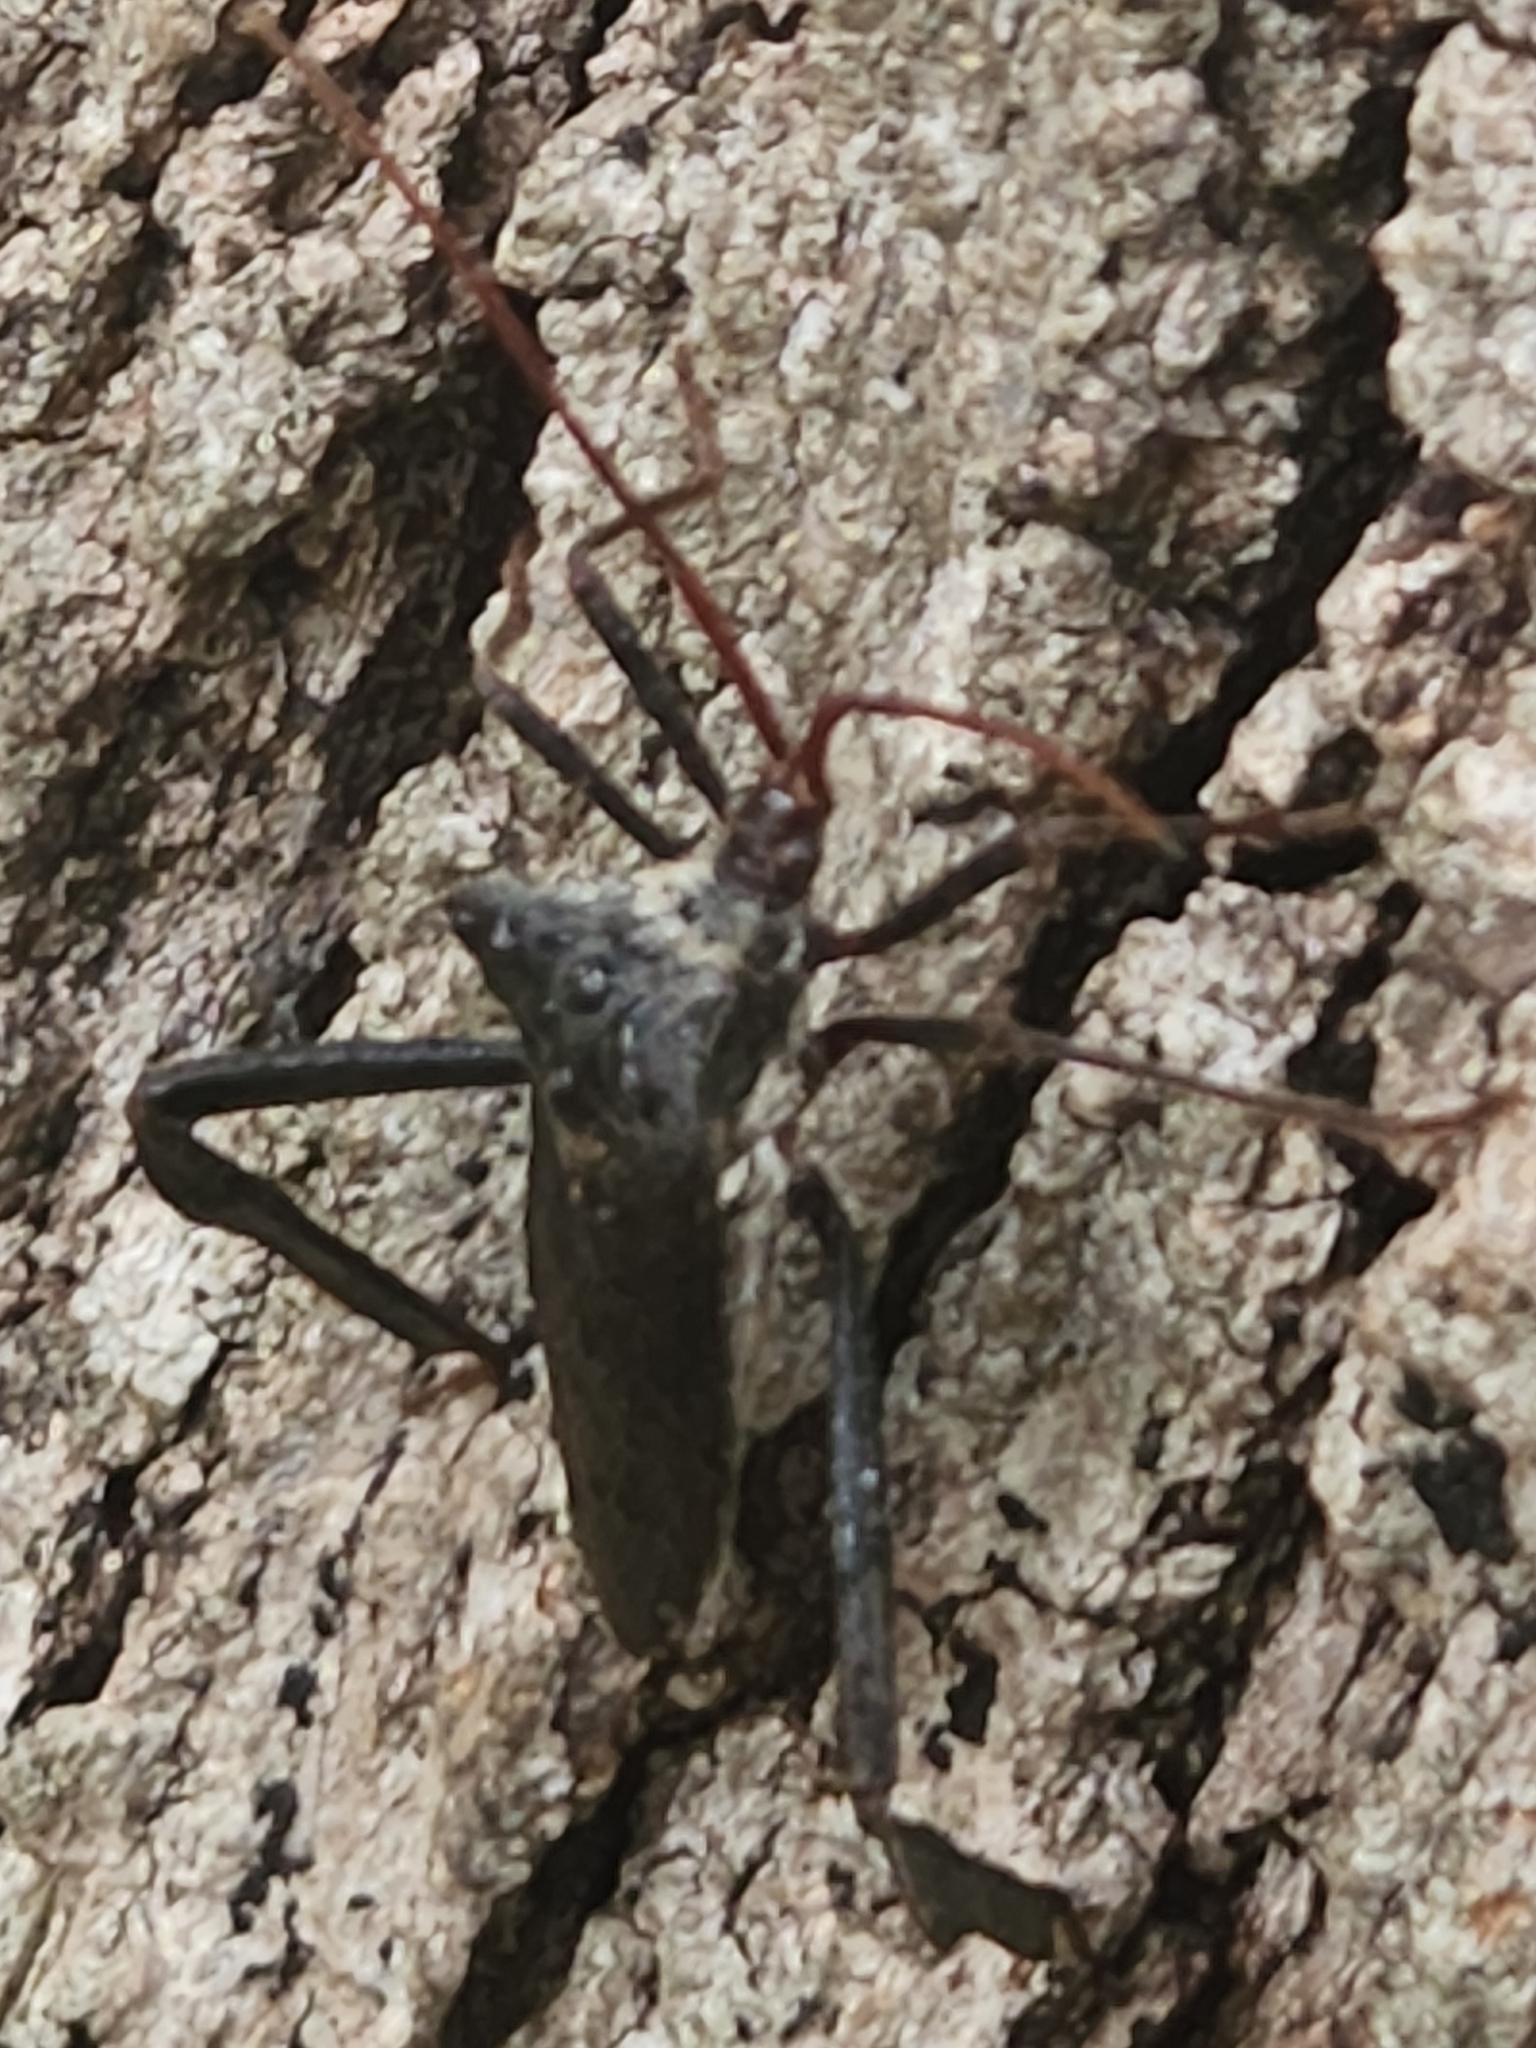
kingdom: Animalia
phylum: Arthropoda
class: Insecta
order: Hemiptera
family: Coreidae
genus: Acanthocephala
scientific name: Acanthocephala declivis
